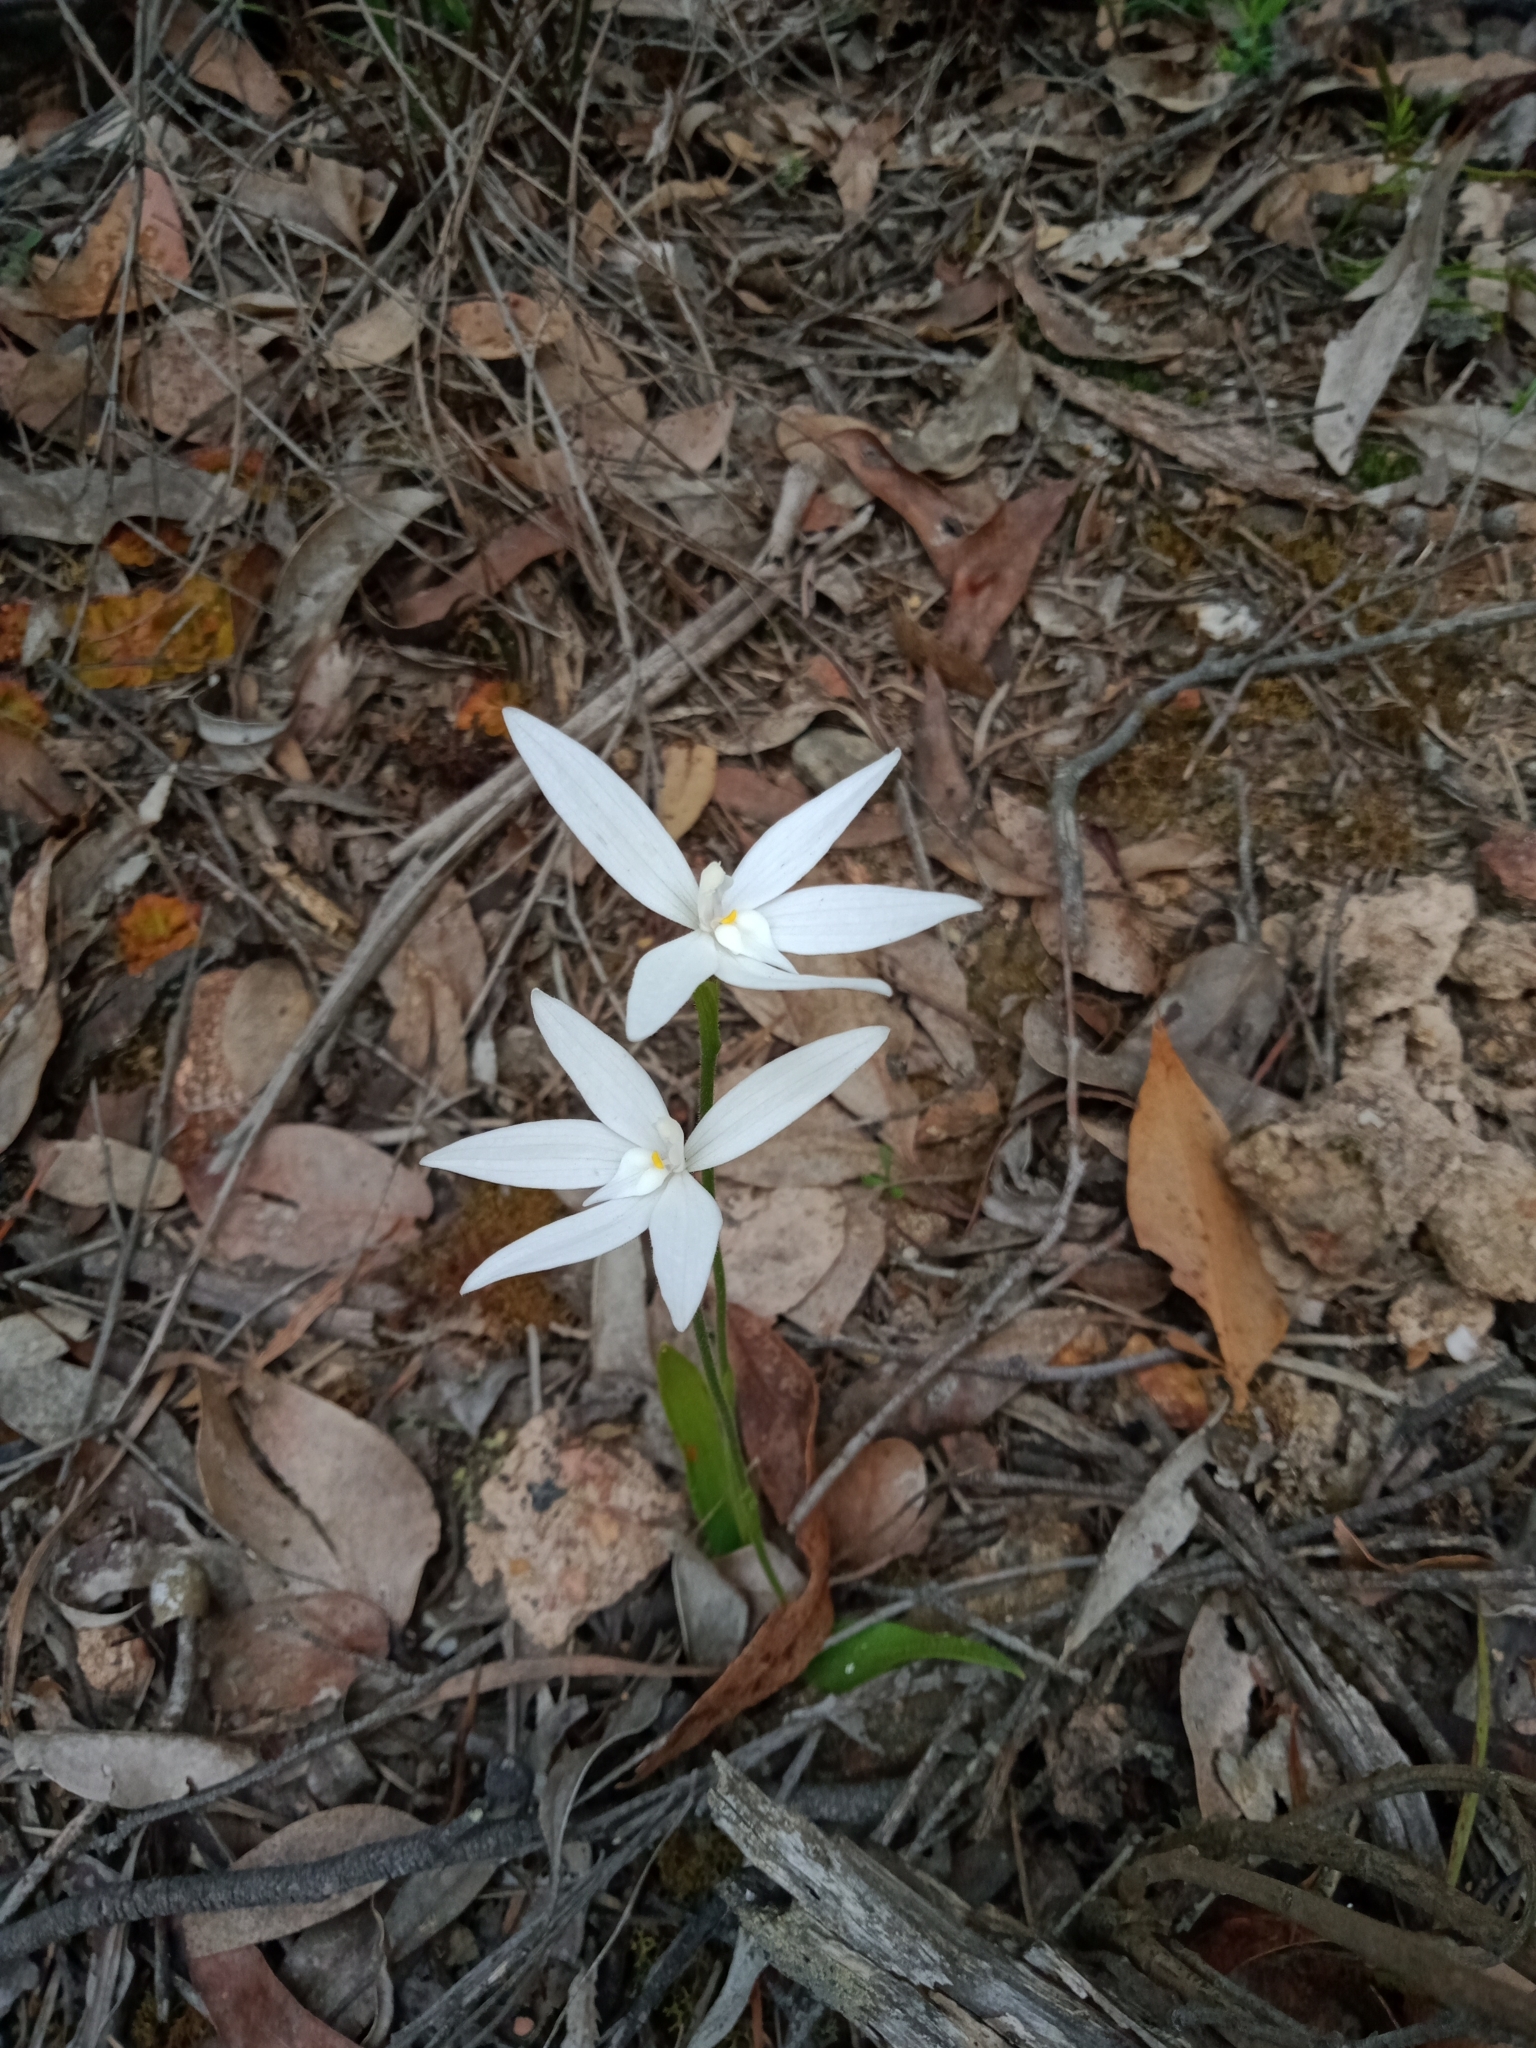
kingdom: Plantae
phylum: Tracheophyta
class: Liliopsida
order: Asparagales
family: Orchidaceae
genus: Caladenia
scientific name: Caladenia major
